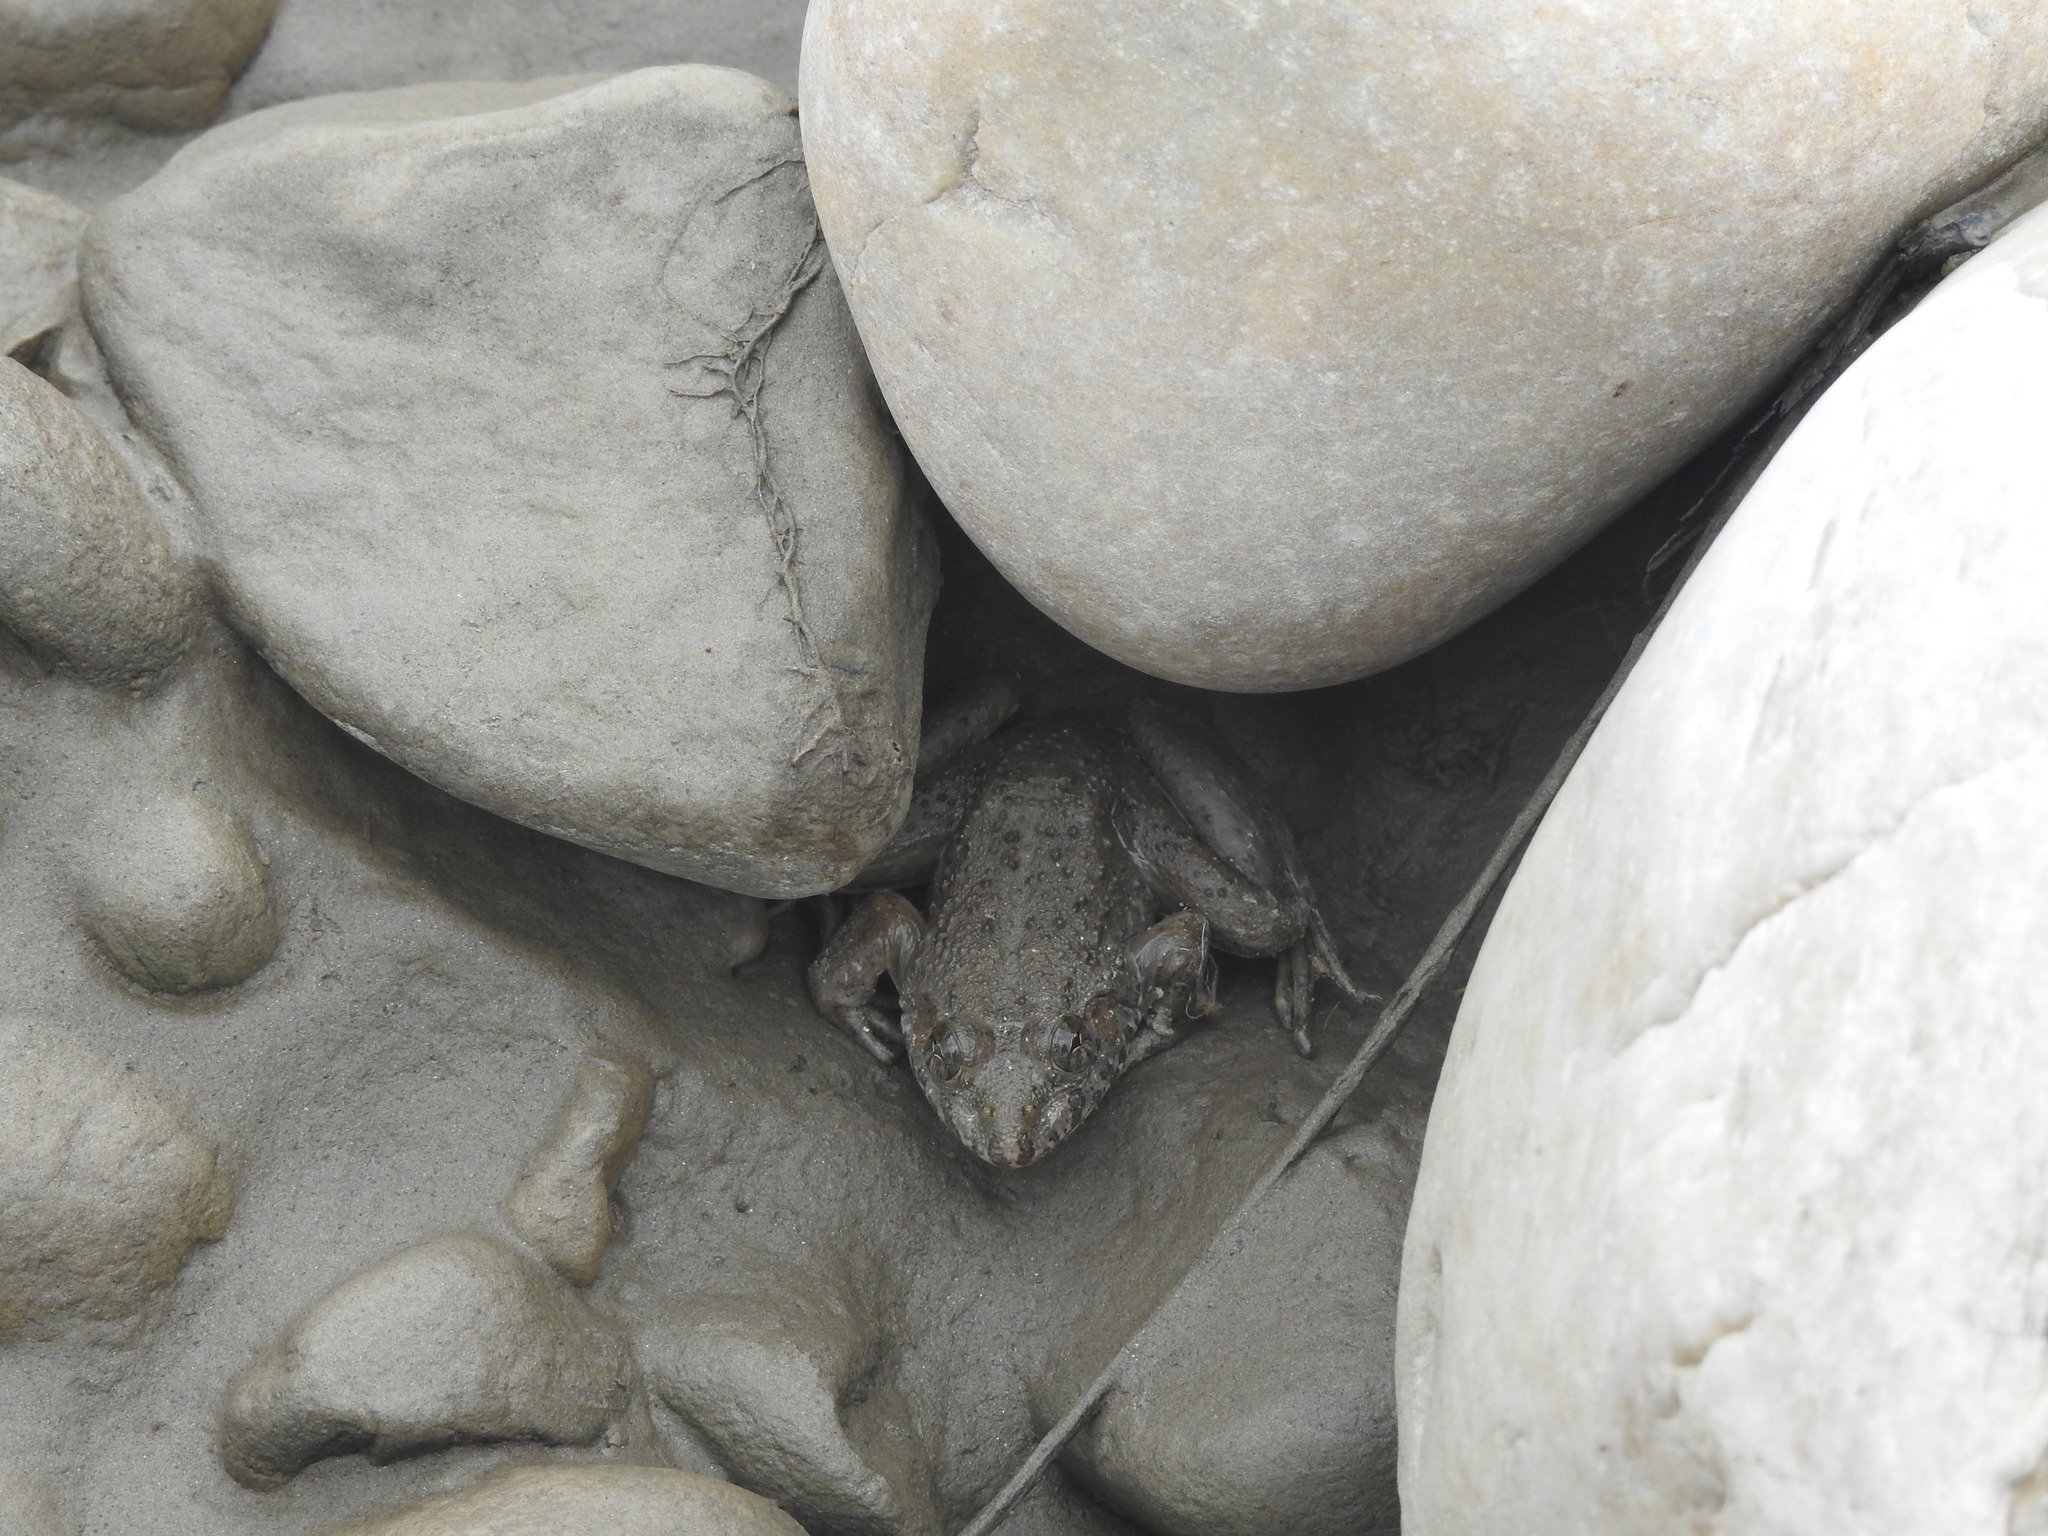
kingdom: Animalia
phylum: Chordata
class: Amphibia
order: Anura
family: Dicroglossidae
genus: Euphlyctis
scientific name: Euphlyctis cyanophlyctis
